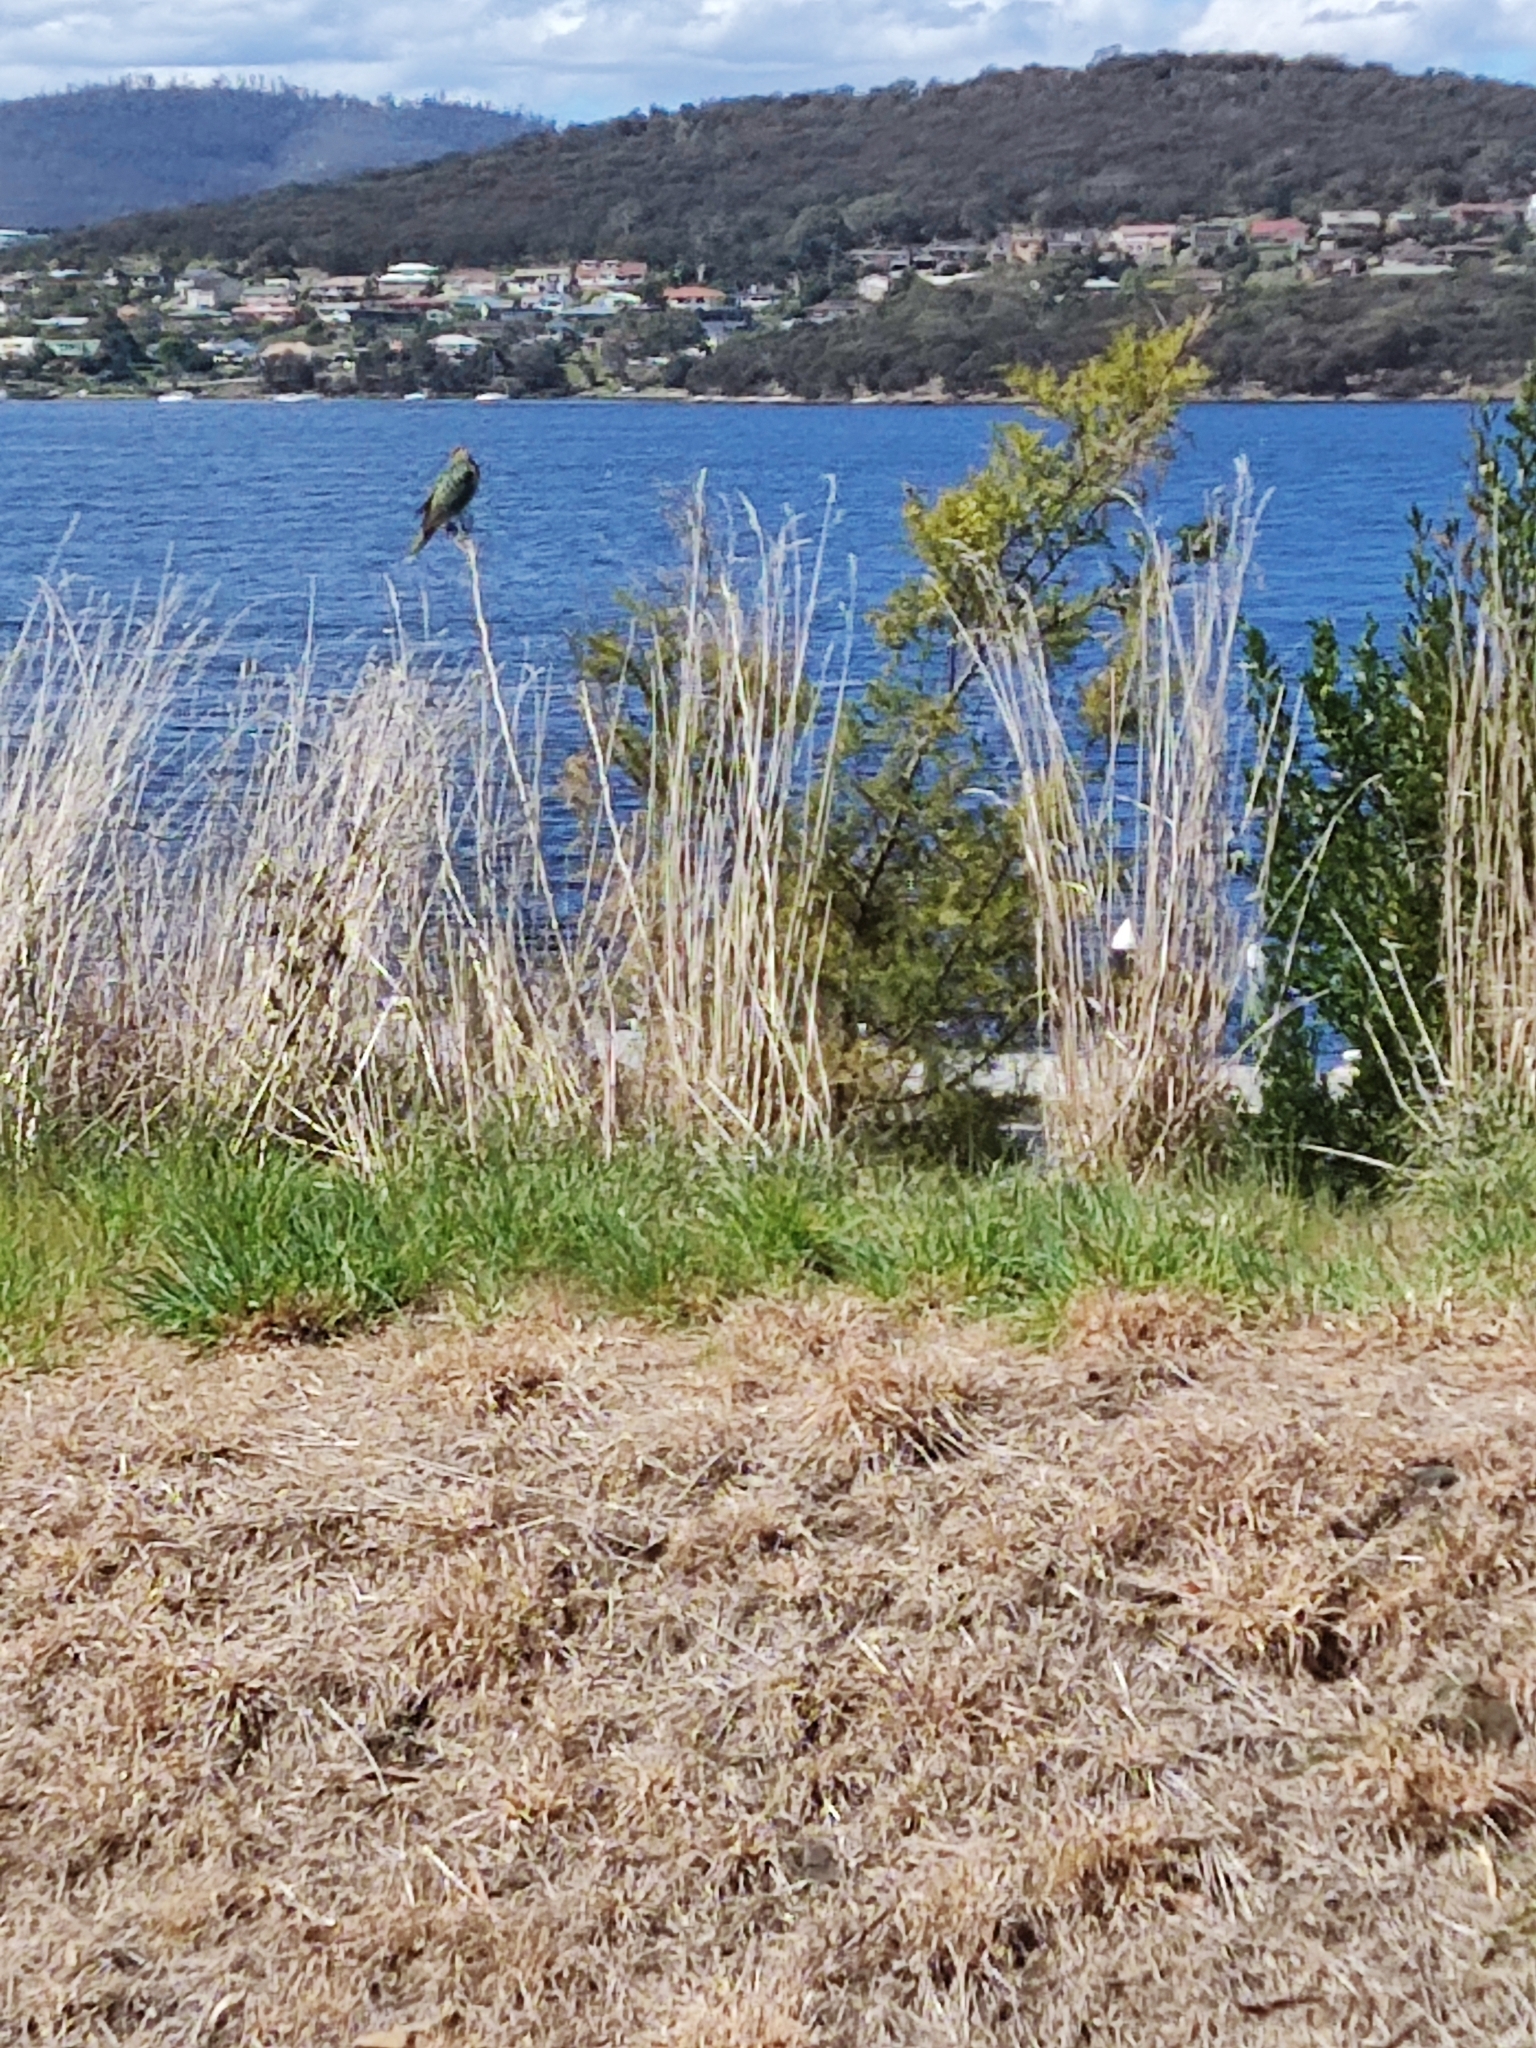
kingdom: Animalia
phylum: Chordata
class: Aves
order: Psittaciformes
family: Psittacidae
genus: Platycercus
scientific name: Platycercus eximius
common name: Eastern rosella
